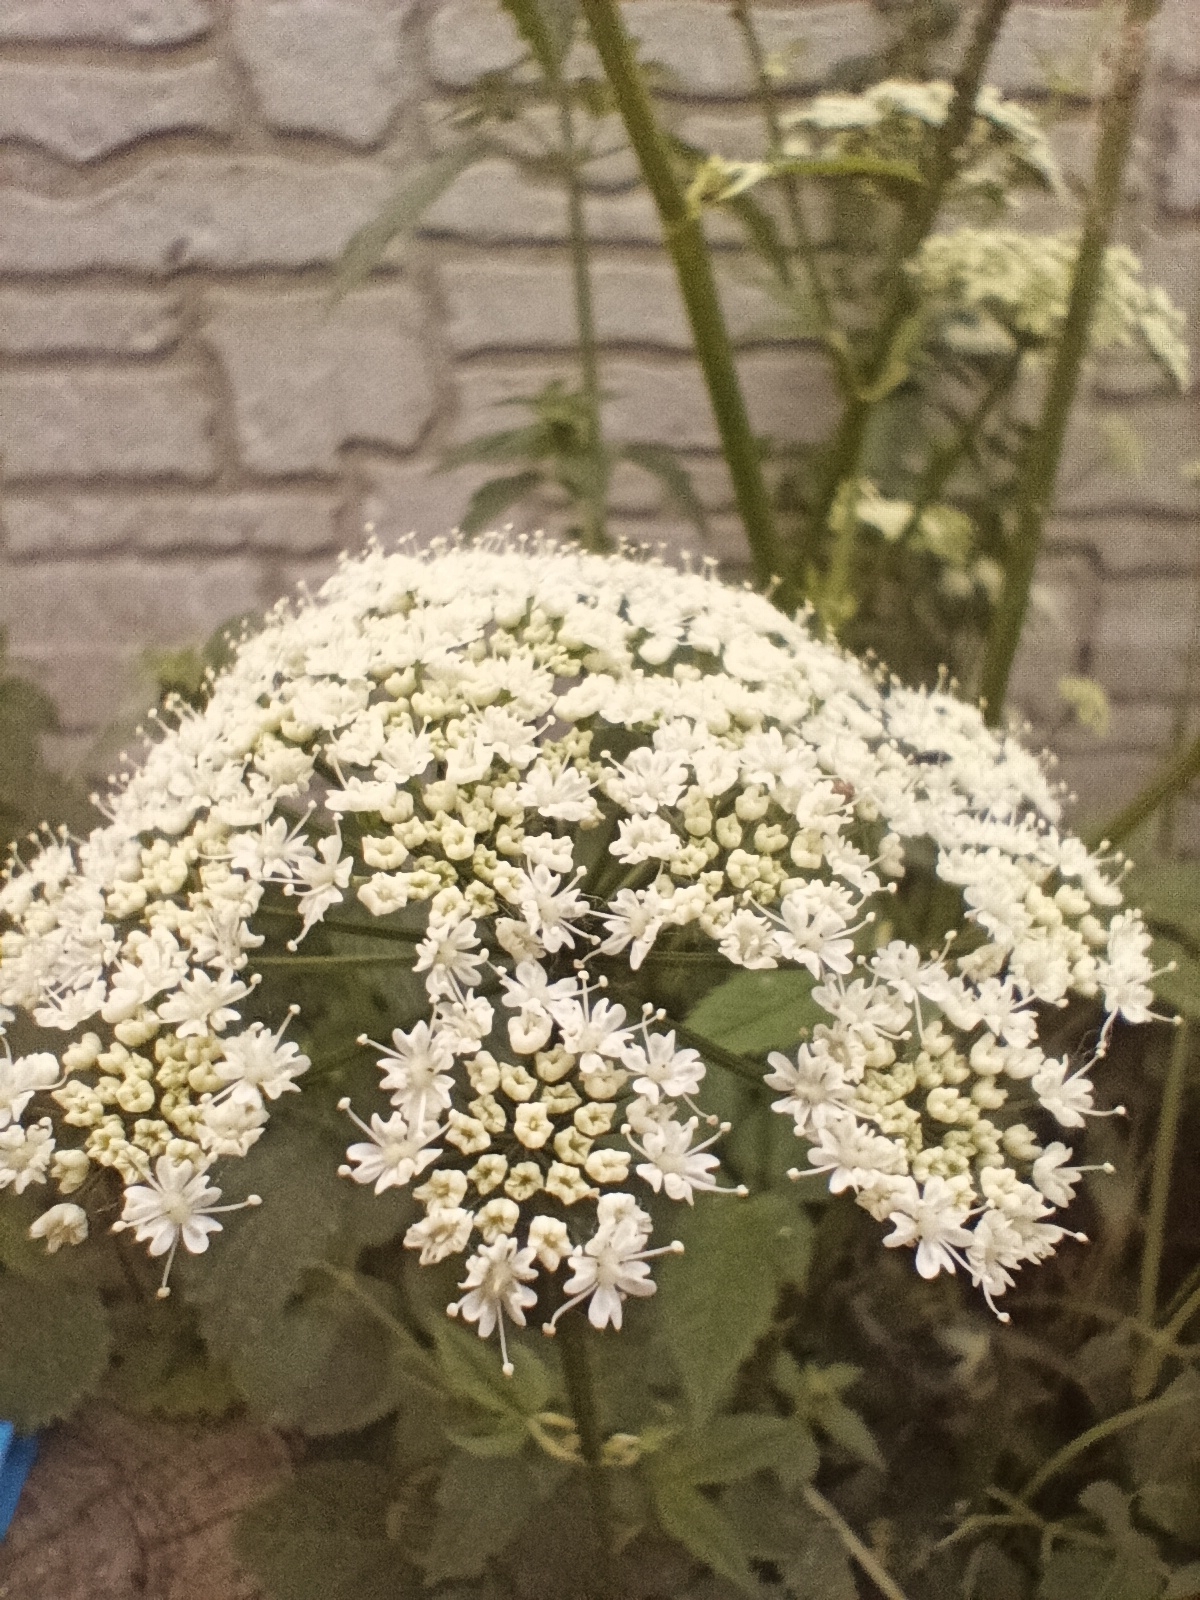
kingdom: Plantae
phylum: Tracheophyta
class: Magnoliopsida
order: Apiales
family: Apiaceae
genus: Aegopodium
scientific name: Aegopodium podagraria
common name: Ground-elder
